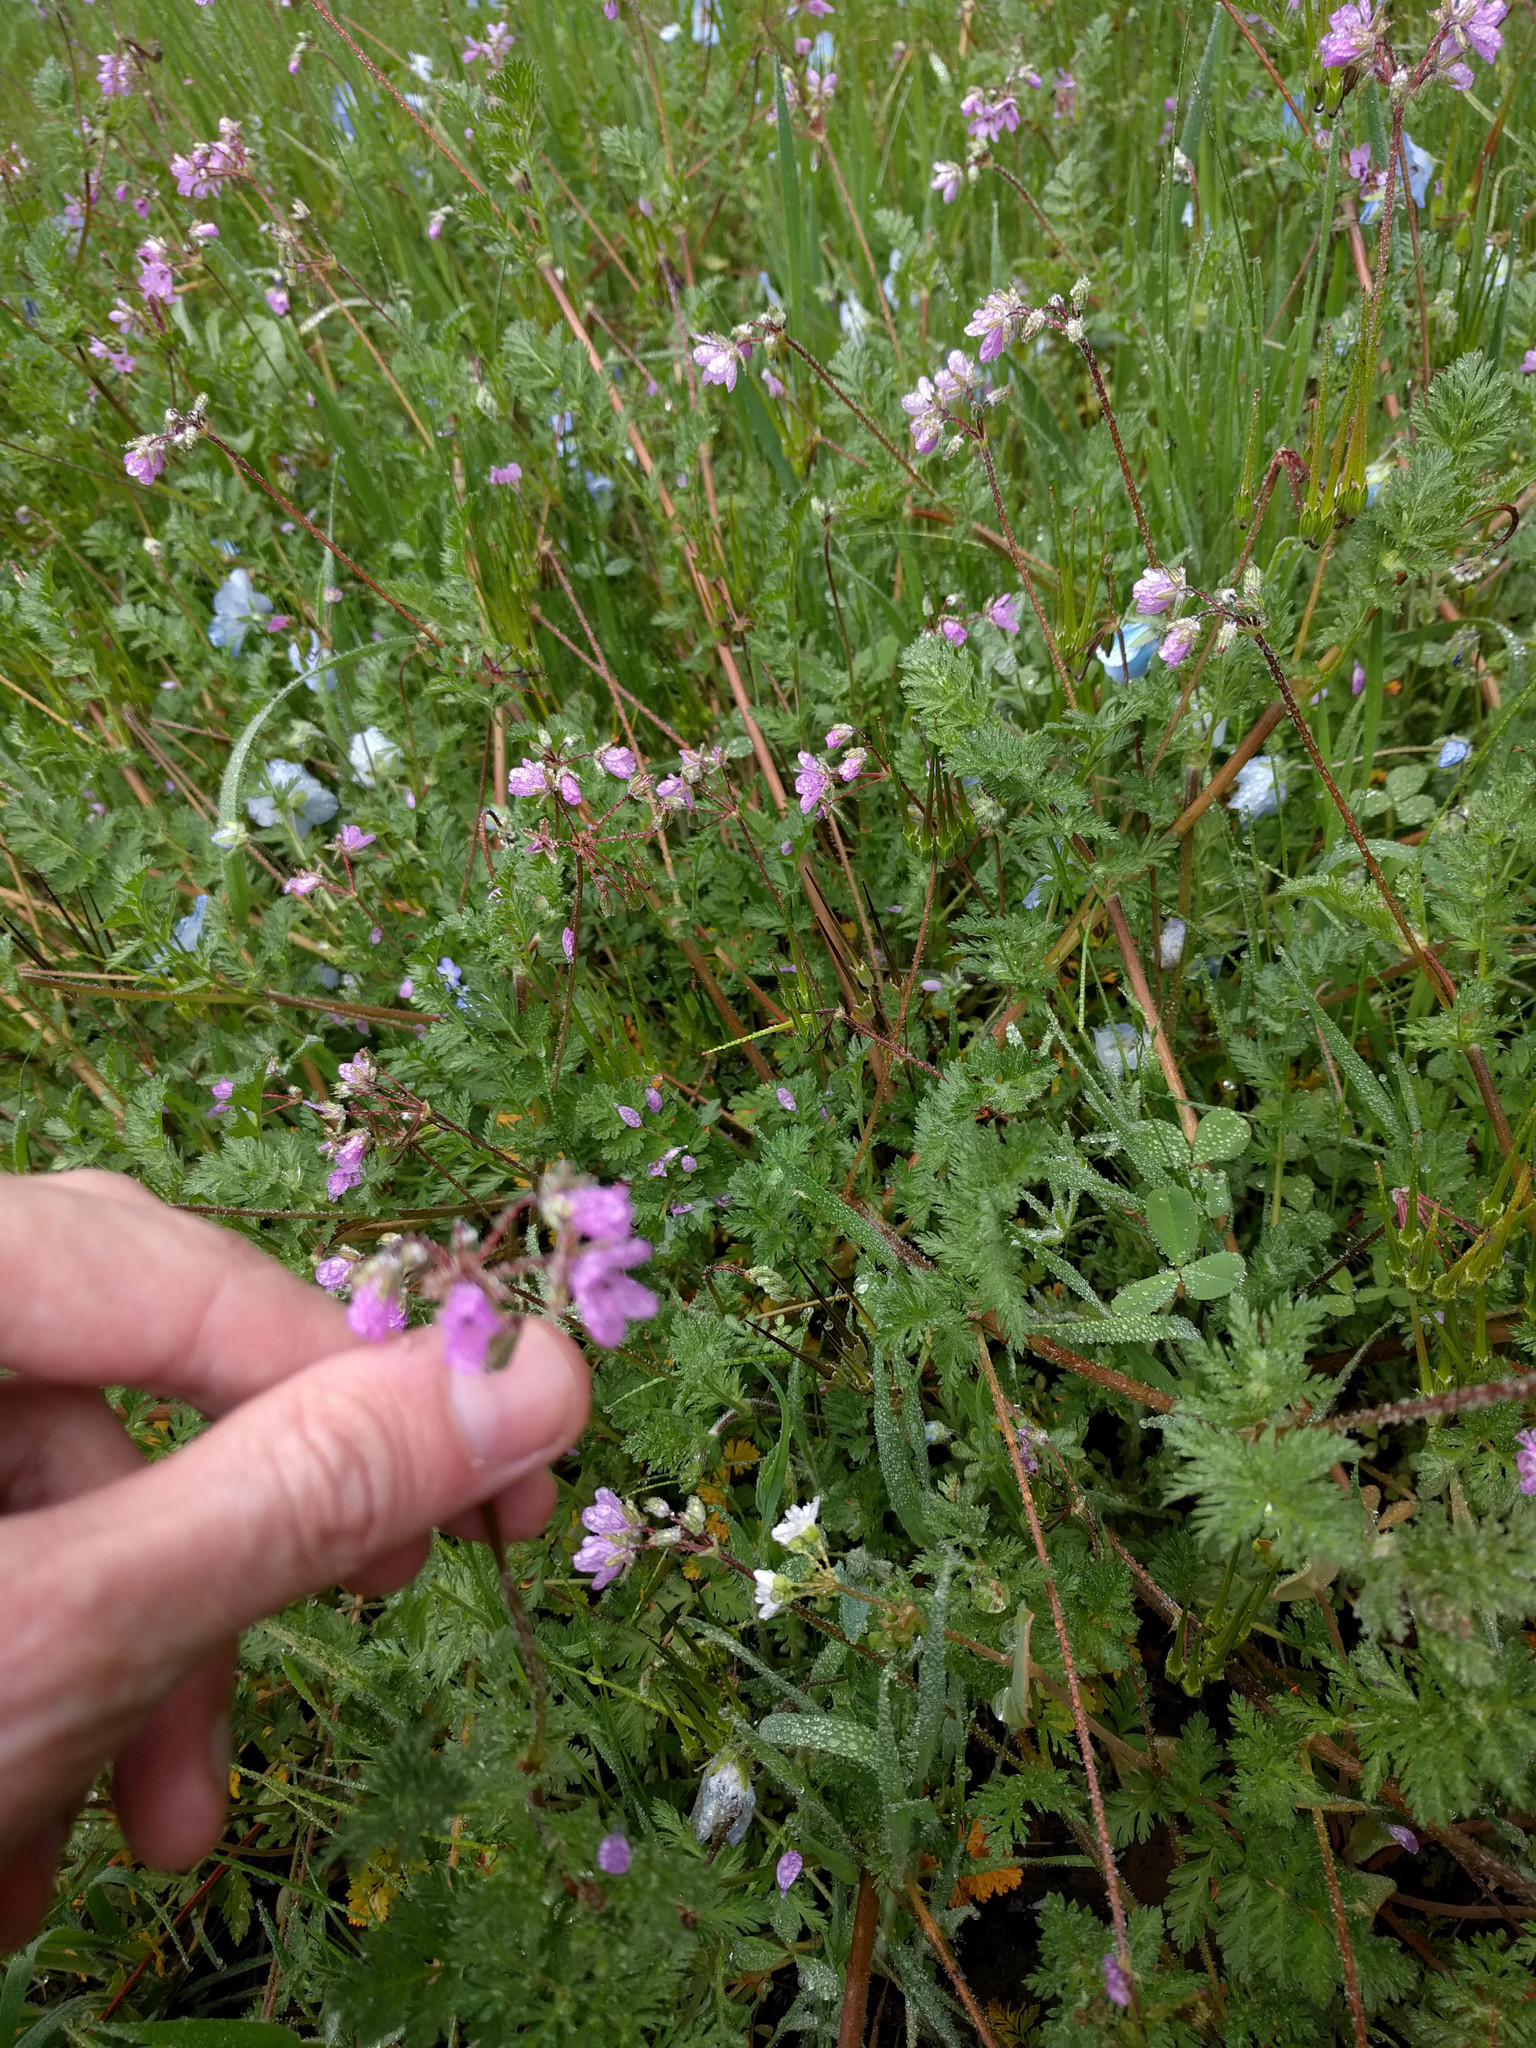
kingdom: Plantae
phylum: Tracheophyta
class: Magnoliopsida
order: Geraniales
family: Geraniaceae
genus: Erodium
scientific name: Erodium cicutarium
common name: Common stork's-bill
